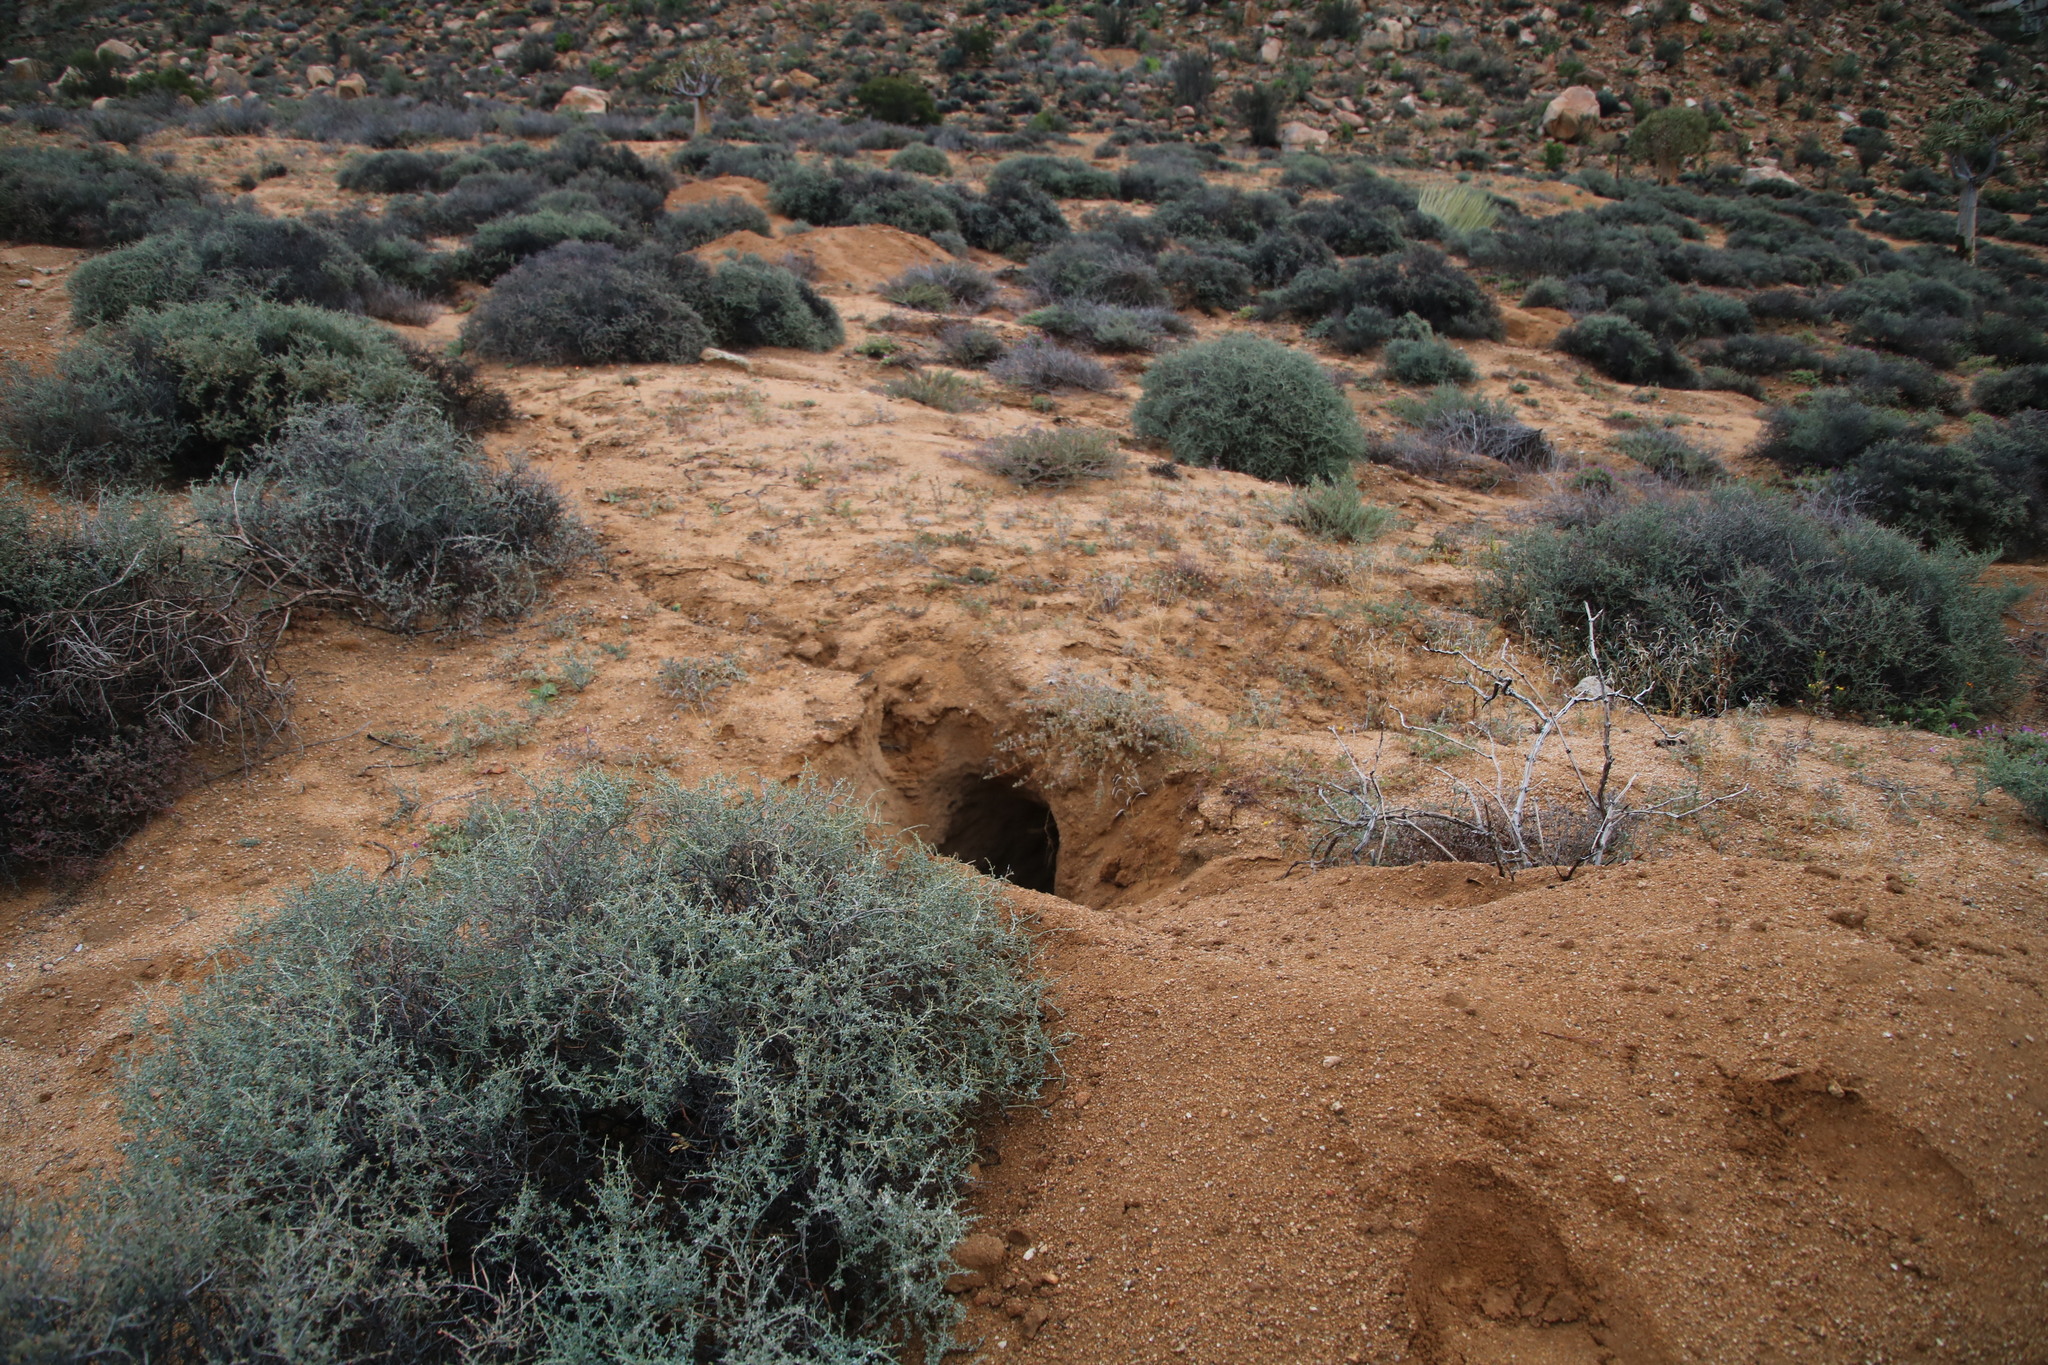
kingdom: Animalia
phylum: Chordata
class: Mammalia
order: Tubulidentata
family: Orycteropodidae
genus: Orycteropus
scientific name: Orycteropus afer
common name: Aardvark
